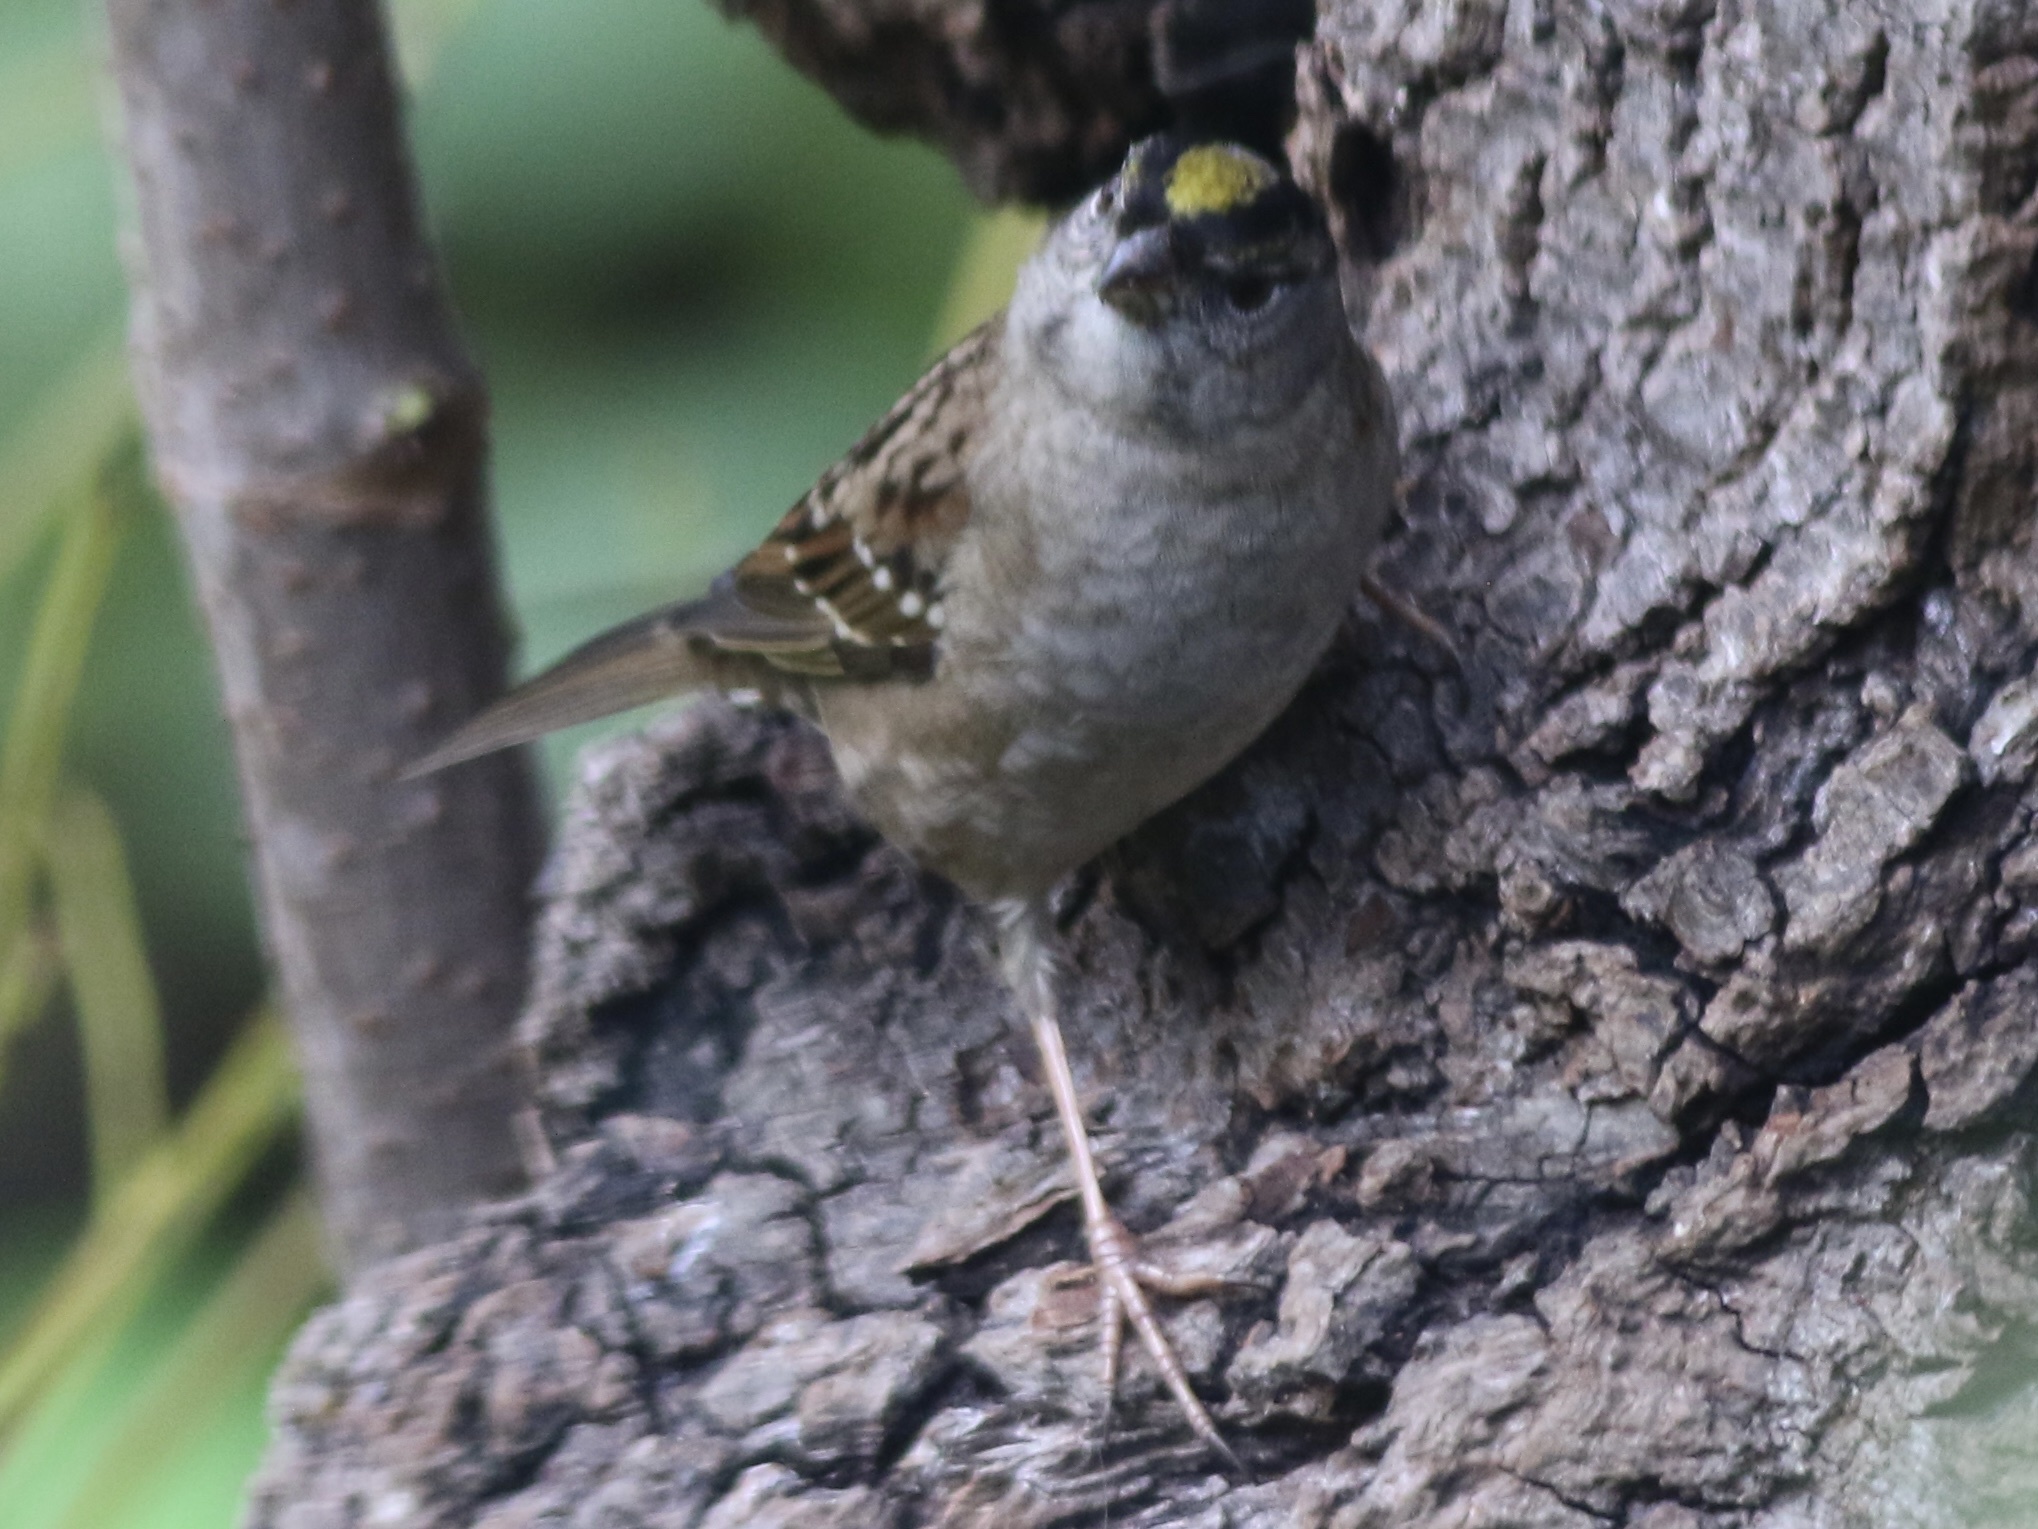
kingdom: Animalia
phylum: Chordata
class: Aves
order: Passeriformes
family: Passerellidae
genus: Zonotrichia
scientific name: Zonotrichia atricapilla
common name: Golden-crowned sparrow
